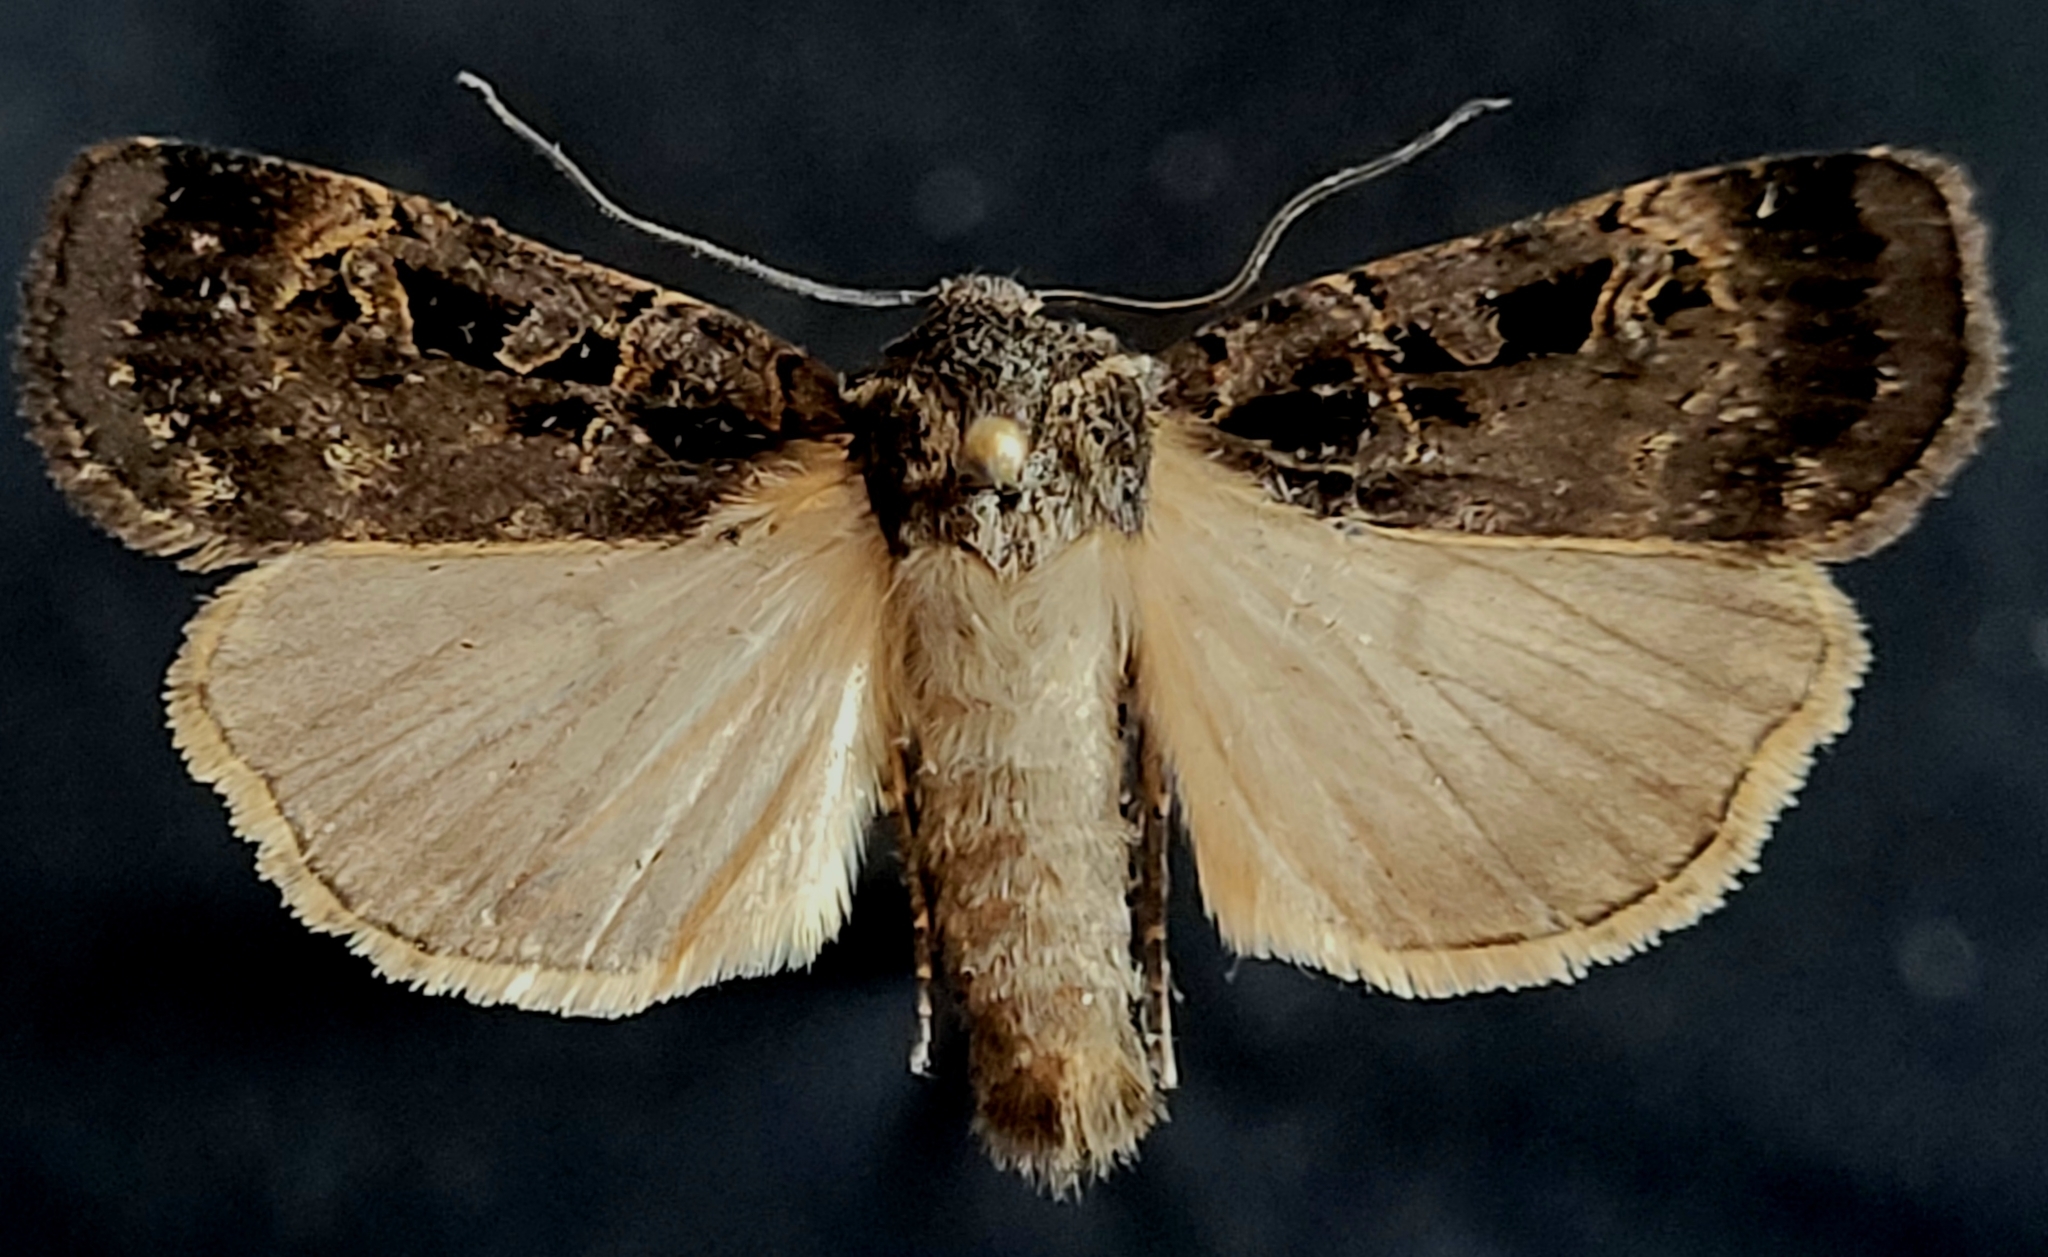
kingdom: Animalia
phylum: Arthropoda
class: Insecta
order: Lepidoptera
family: Noctuidae
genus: Pseudohermonassa
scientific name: Pseudohermonassa tenuicula
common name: Morrison's sooty dart
